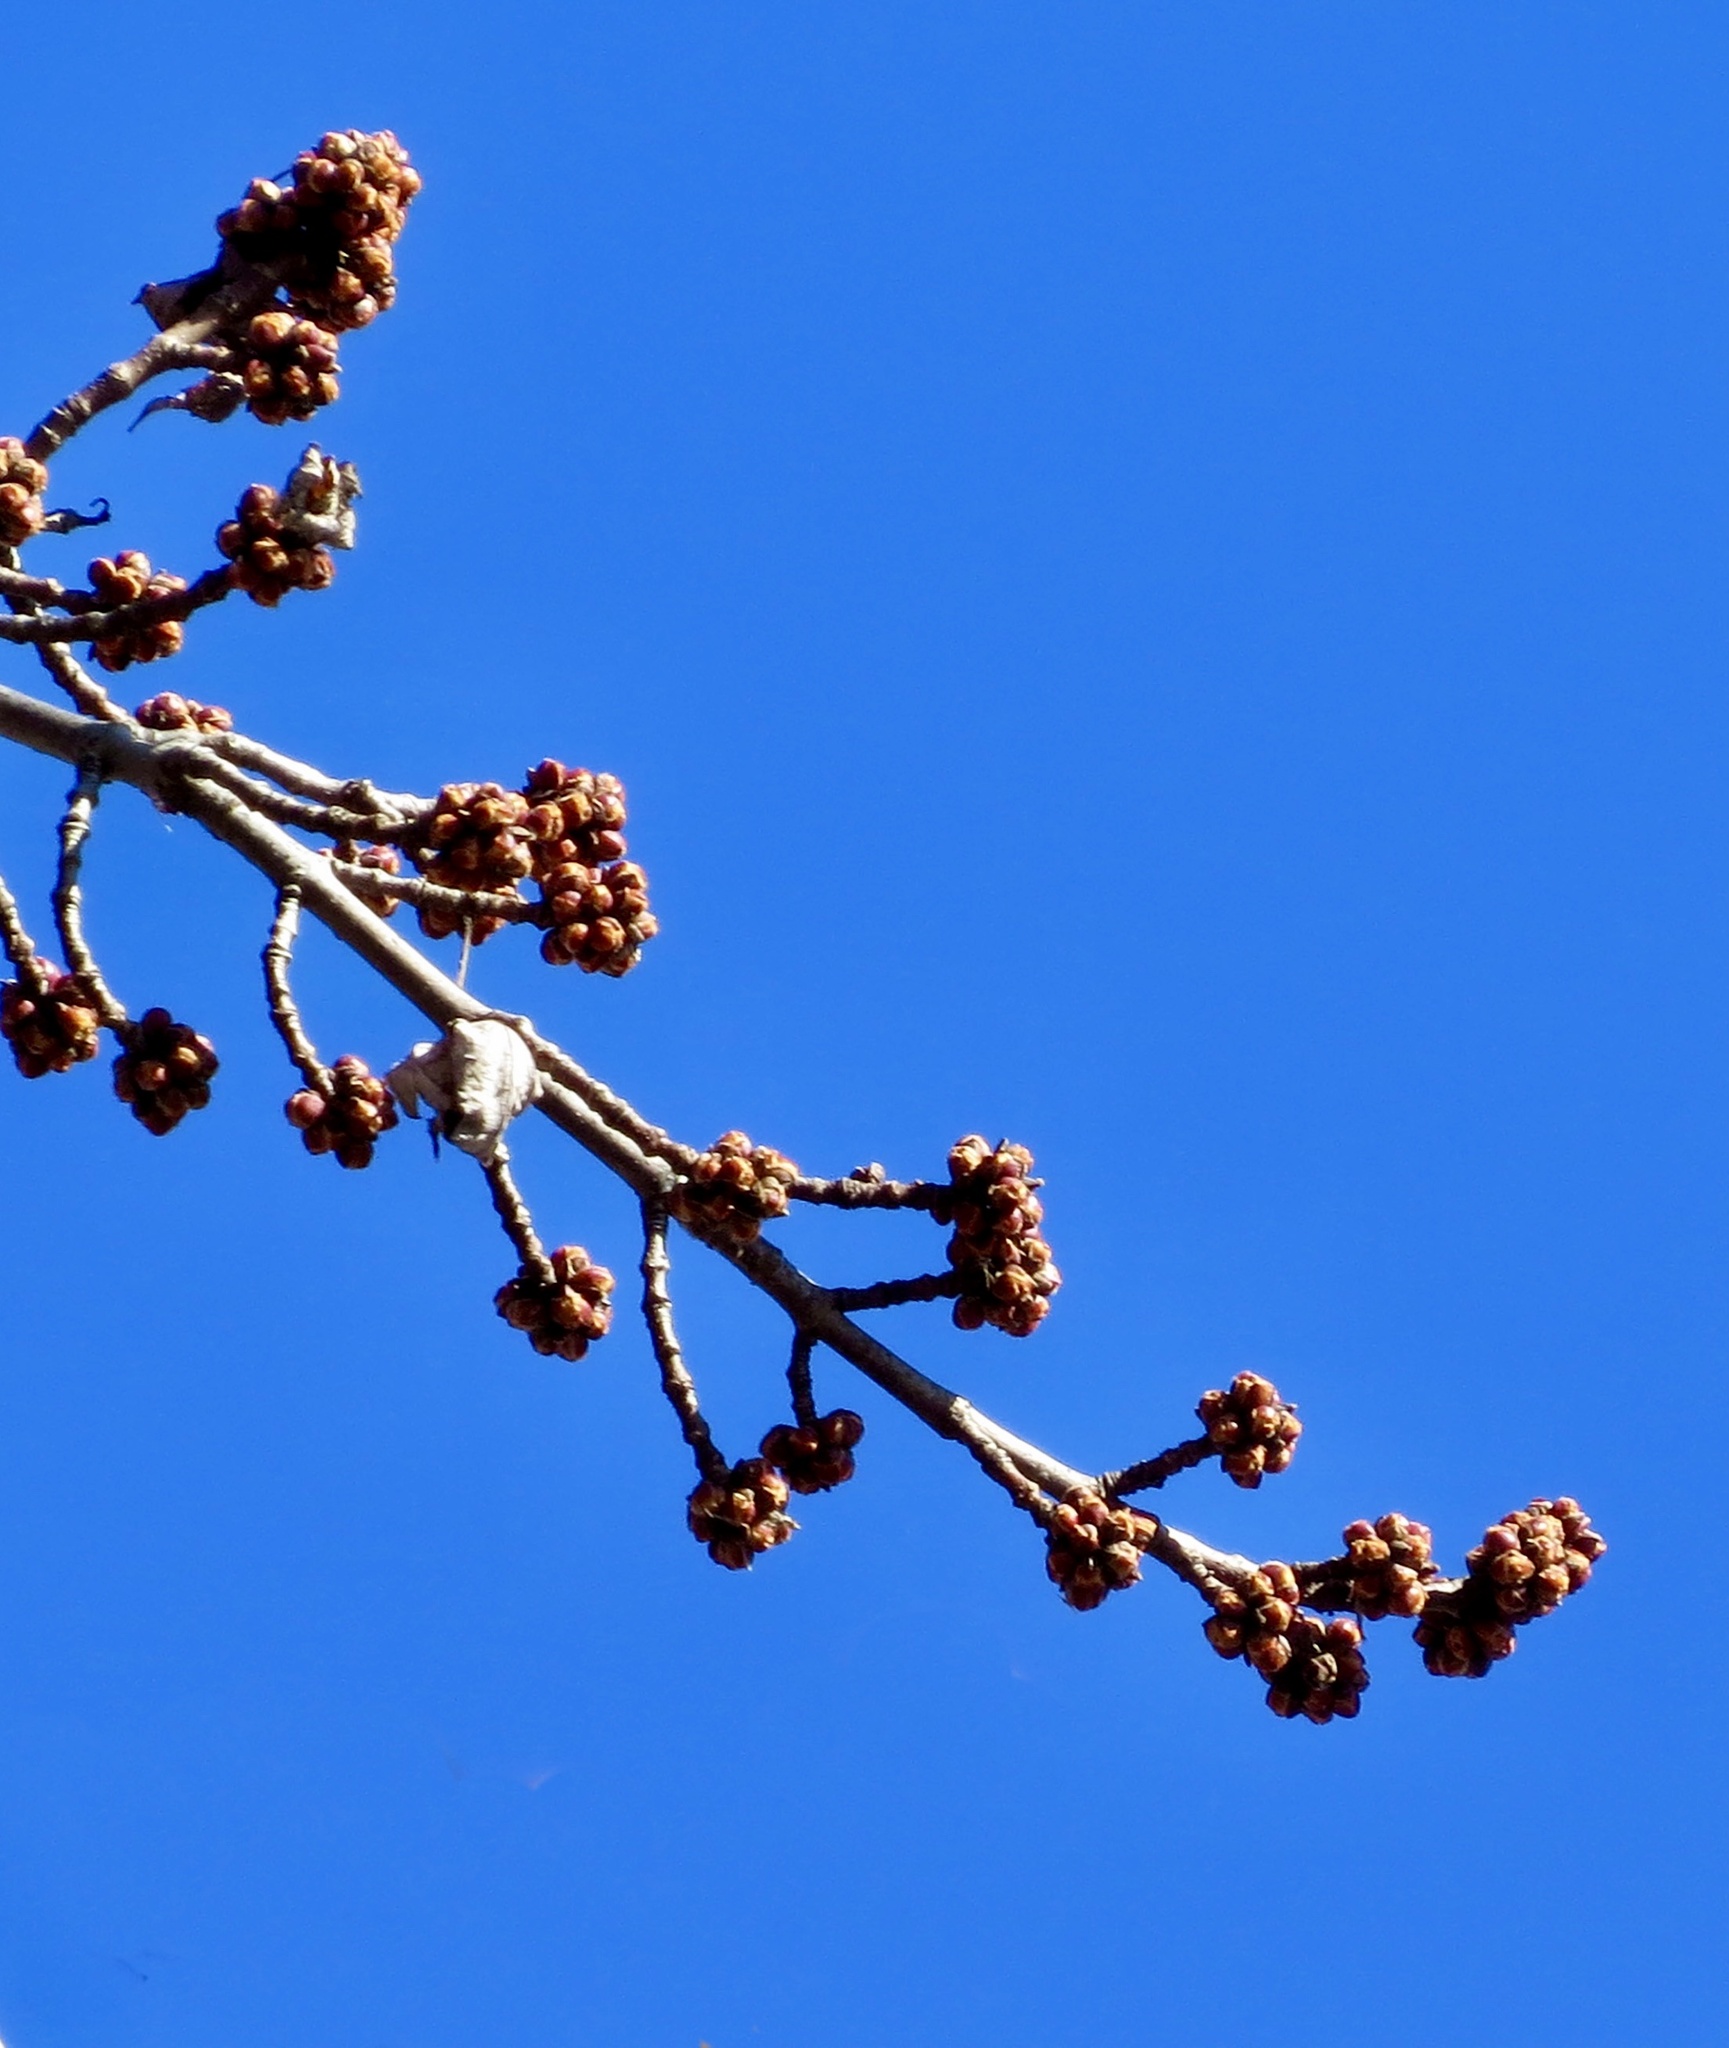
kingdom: Plantae
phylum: Tracheophyta
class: Magnoliopsida
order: Sapindales
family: Sapindaceae
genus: Acer
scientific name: Acer saccharinum
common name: Silver maple
